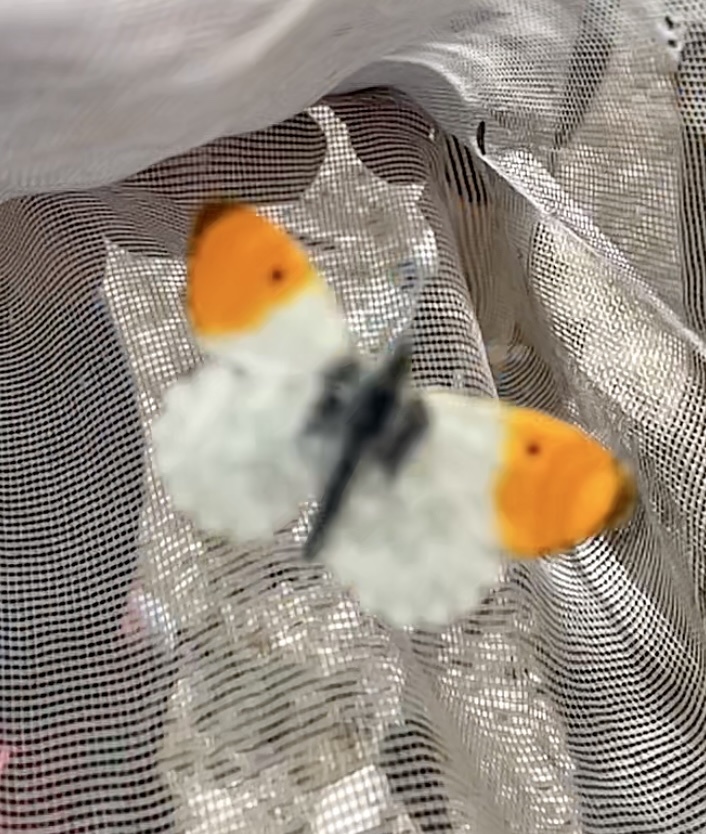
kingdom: Animalia
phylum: Arthropoda
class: Insecta
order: Lepidoptera
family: Pieridae
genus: Anthocharis
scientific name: Anthocharis cardamines
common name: Orange-tip
